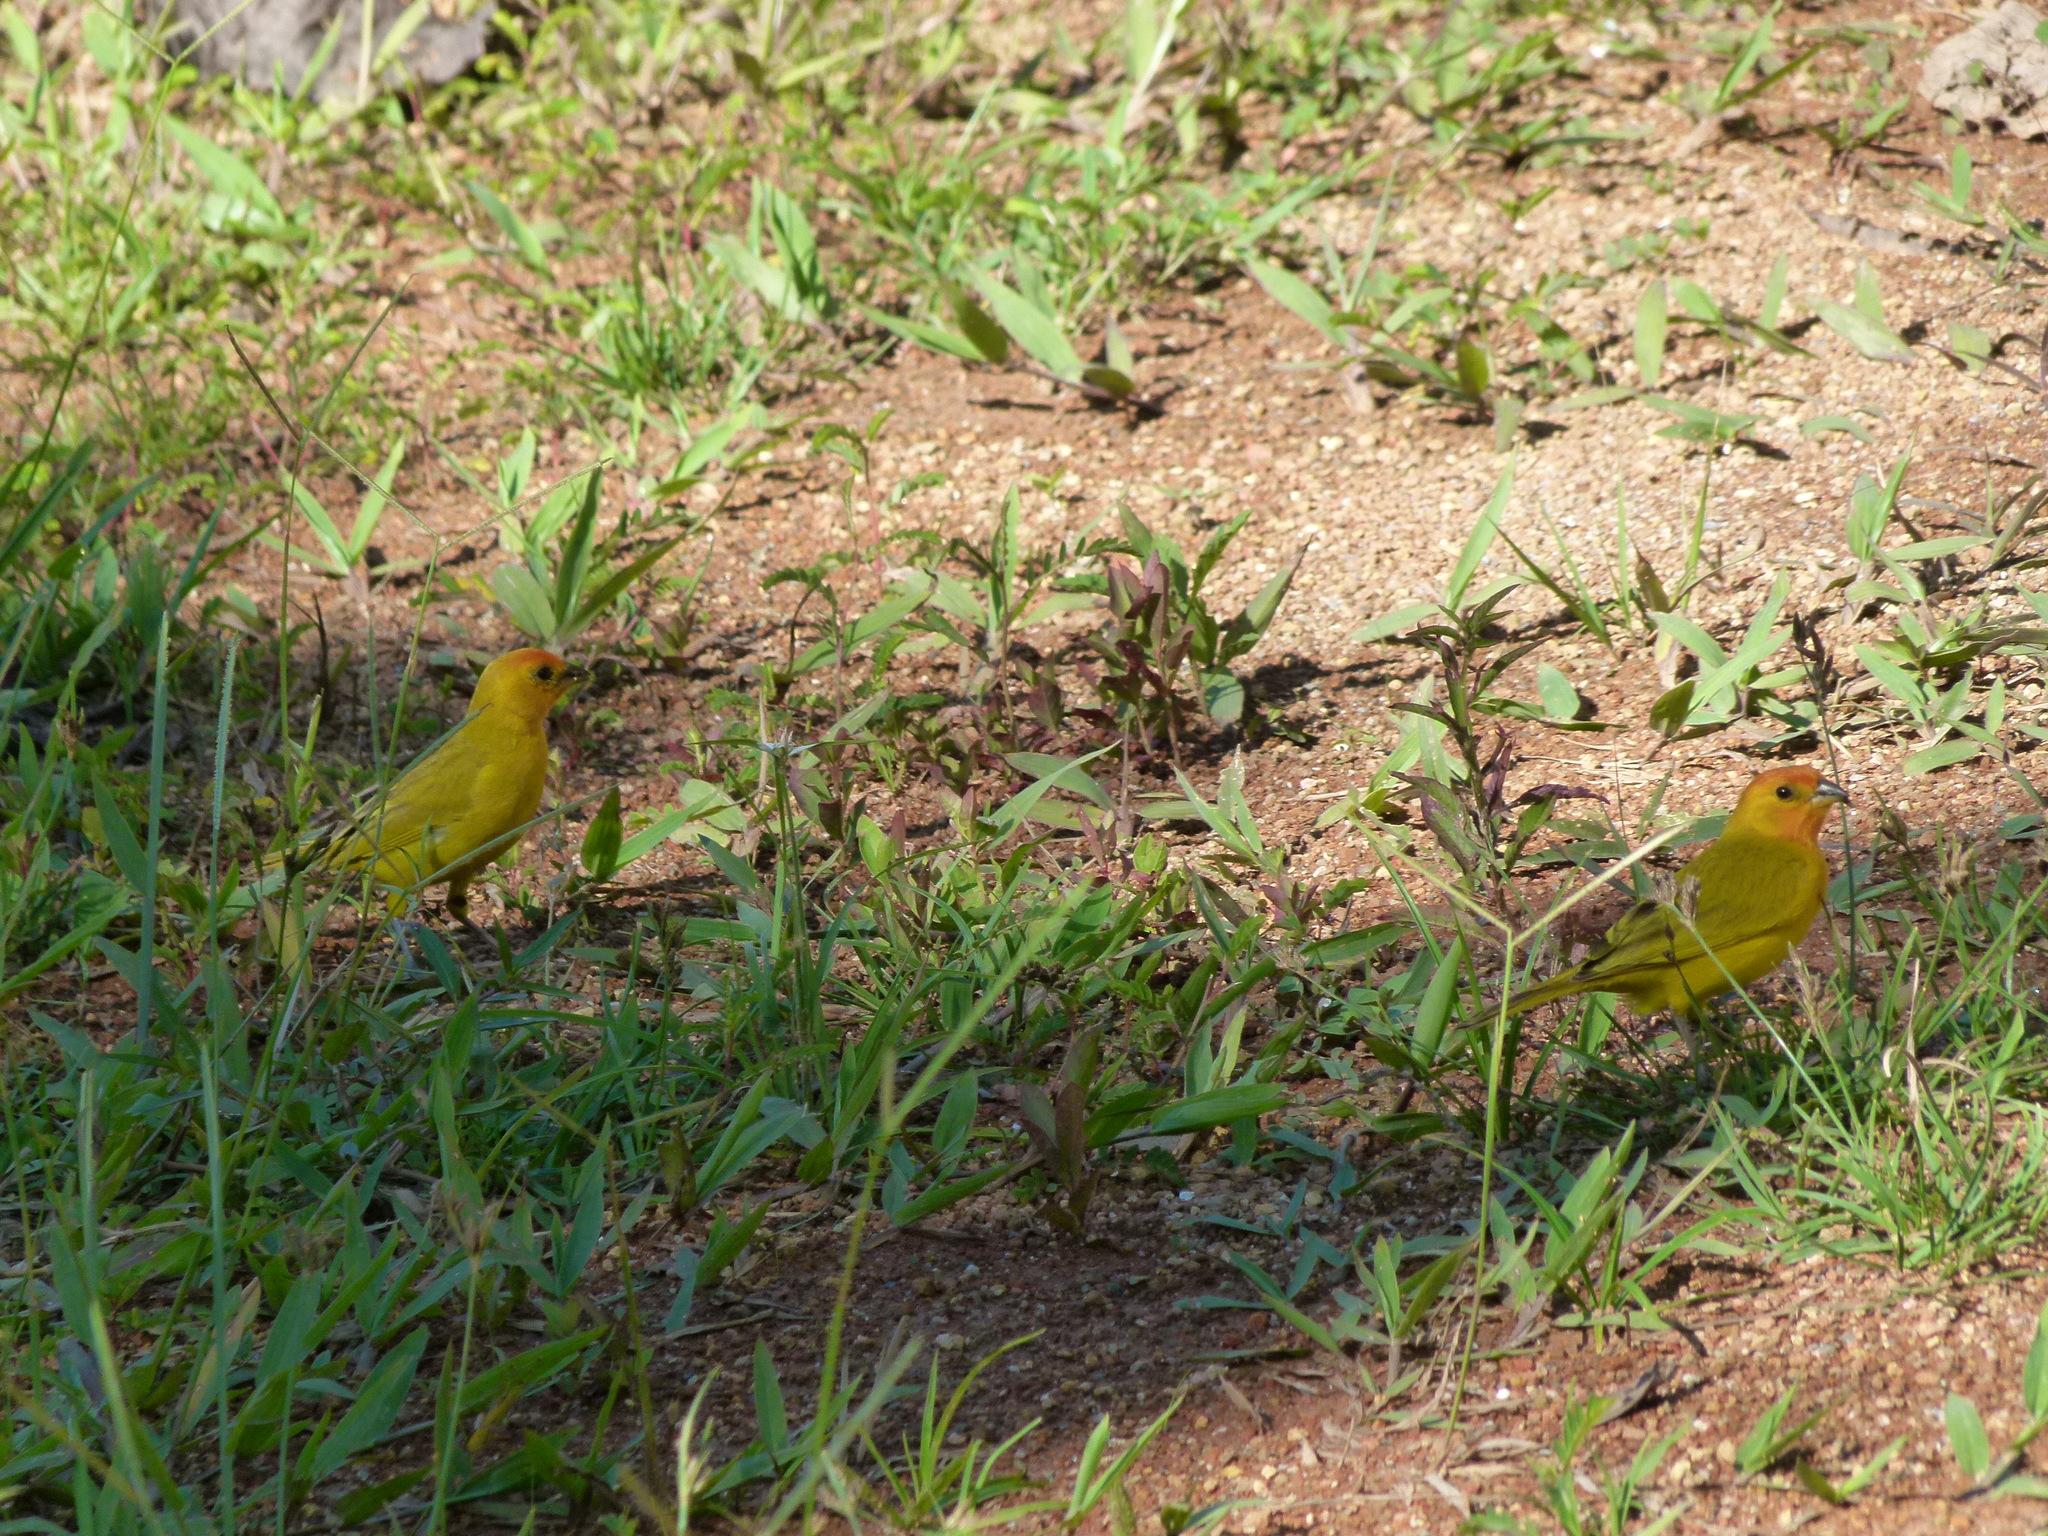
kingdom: Animalia
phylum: Chordata
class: Aves
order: Passeriformes
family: Thraupidae
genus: Sicalis
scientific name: Sicalis flaveola
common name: Saffron finch
